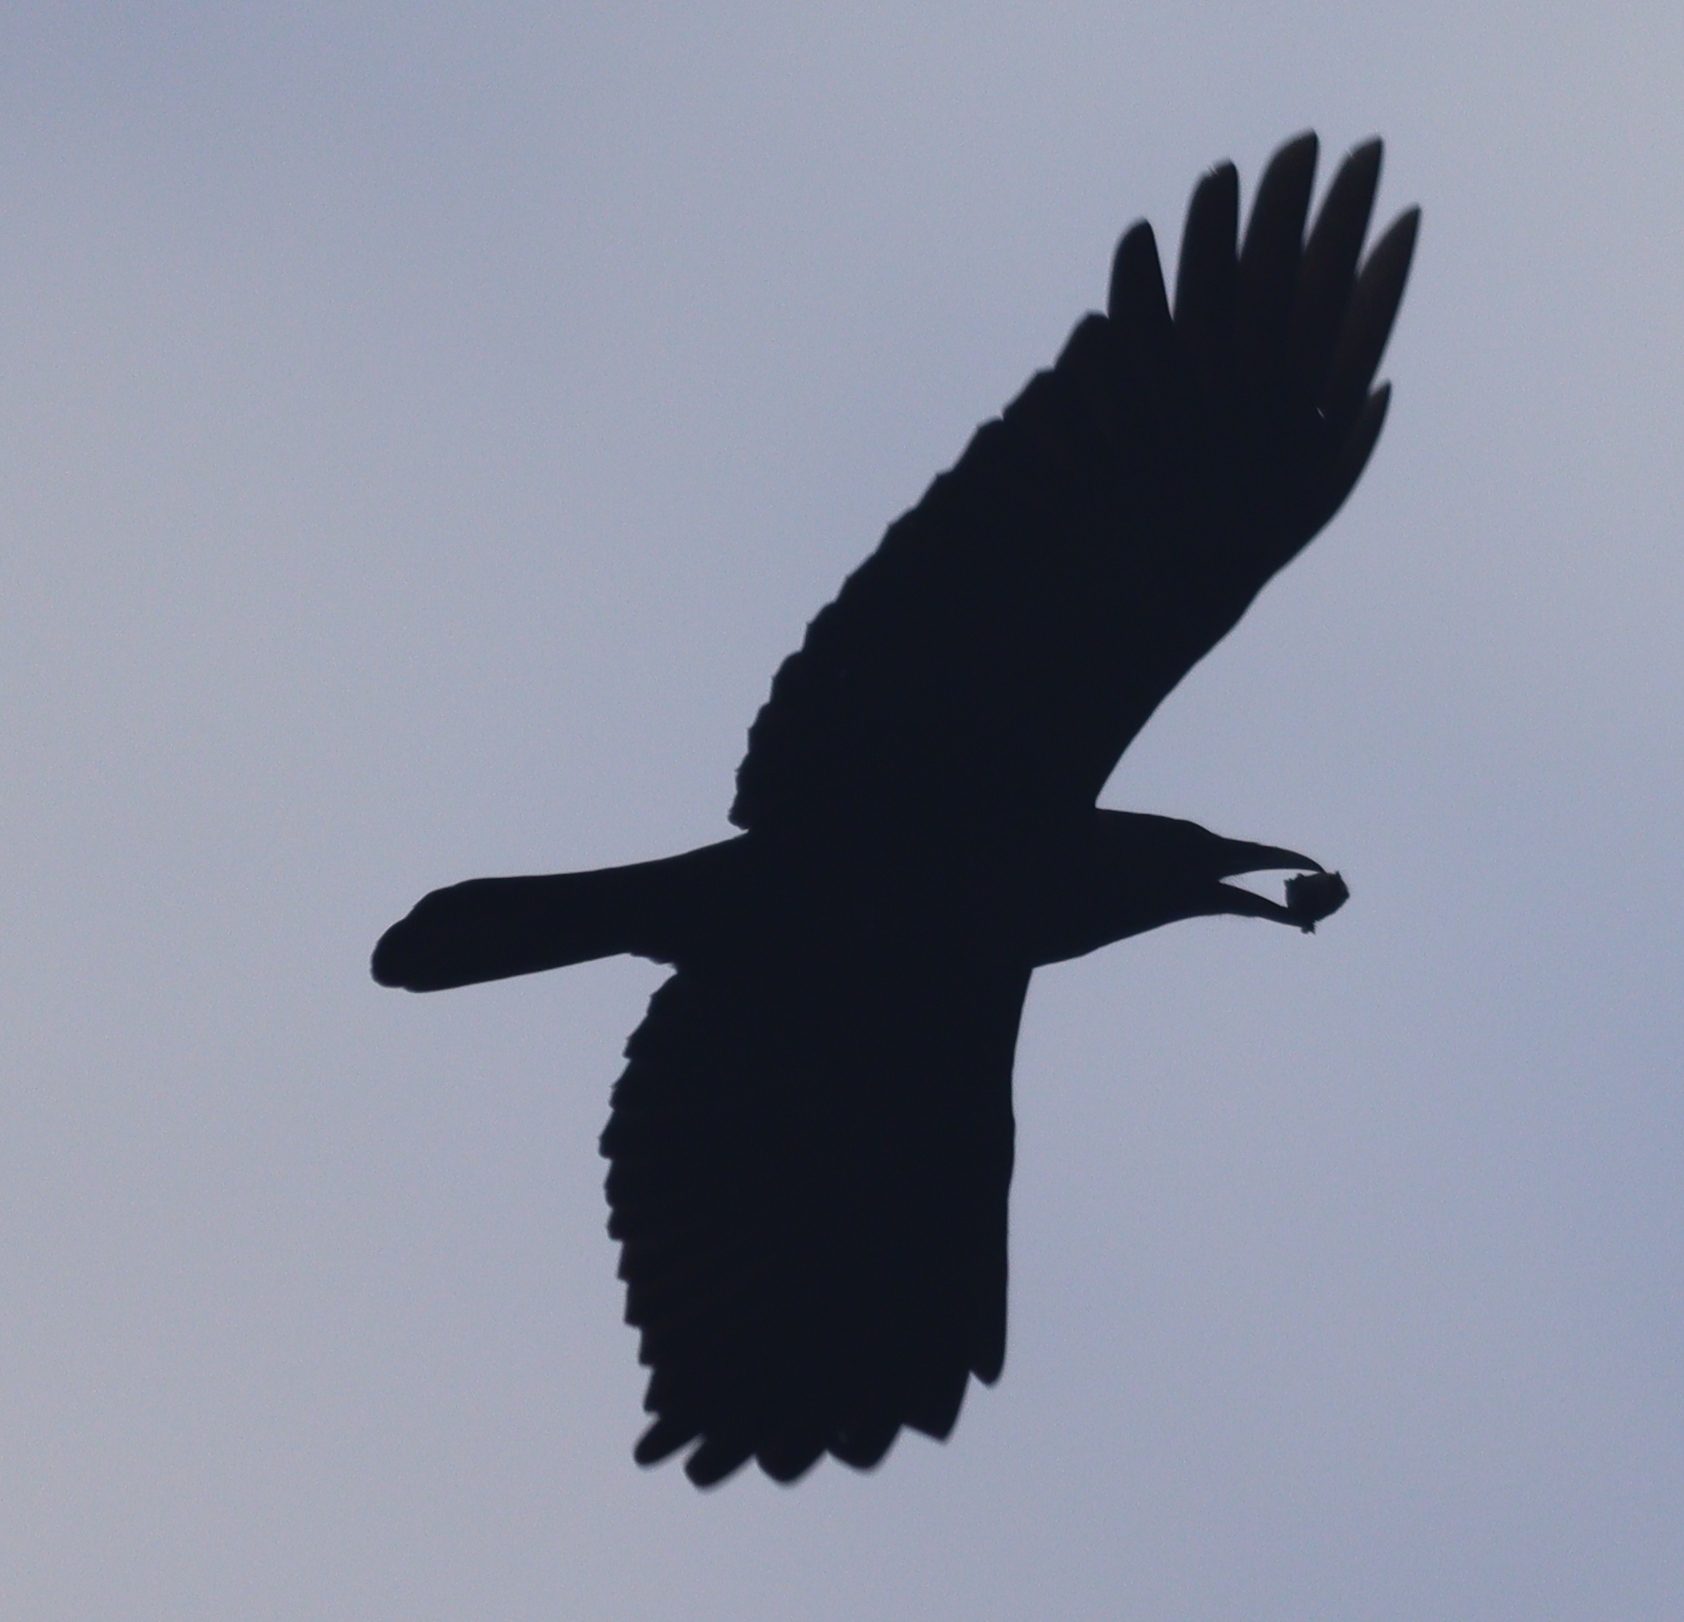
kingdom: Animalia
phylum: Chordata
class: Aves
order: Passeriformes
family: Corvidae
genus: Corvus
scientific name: Corvus corone
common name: Carrion crow
